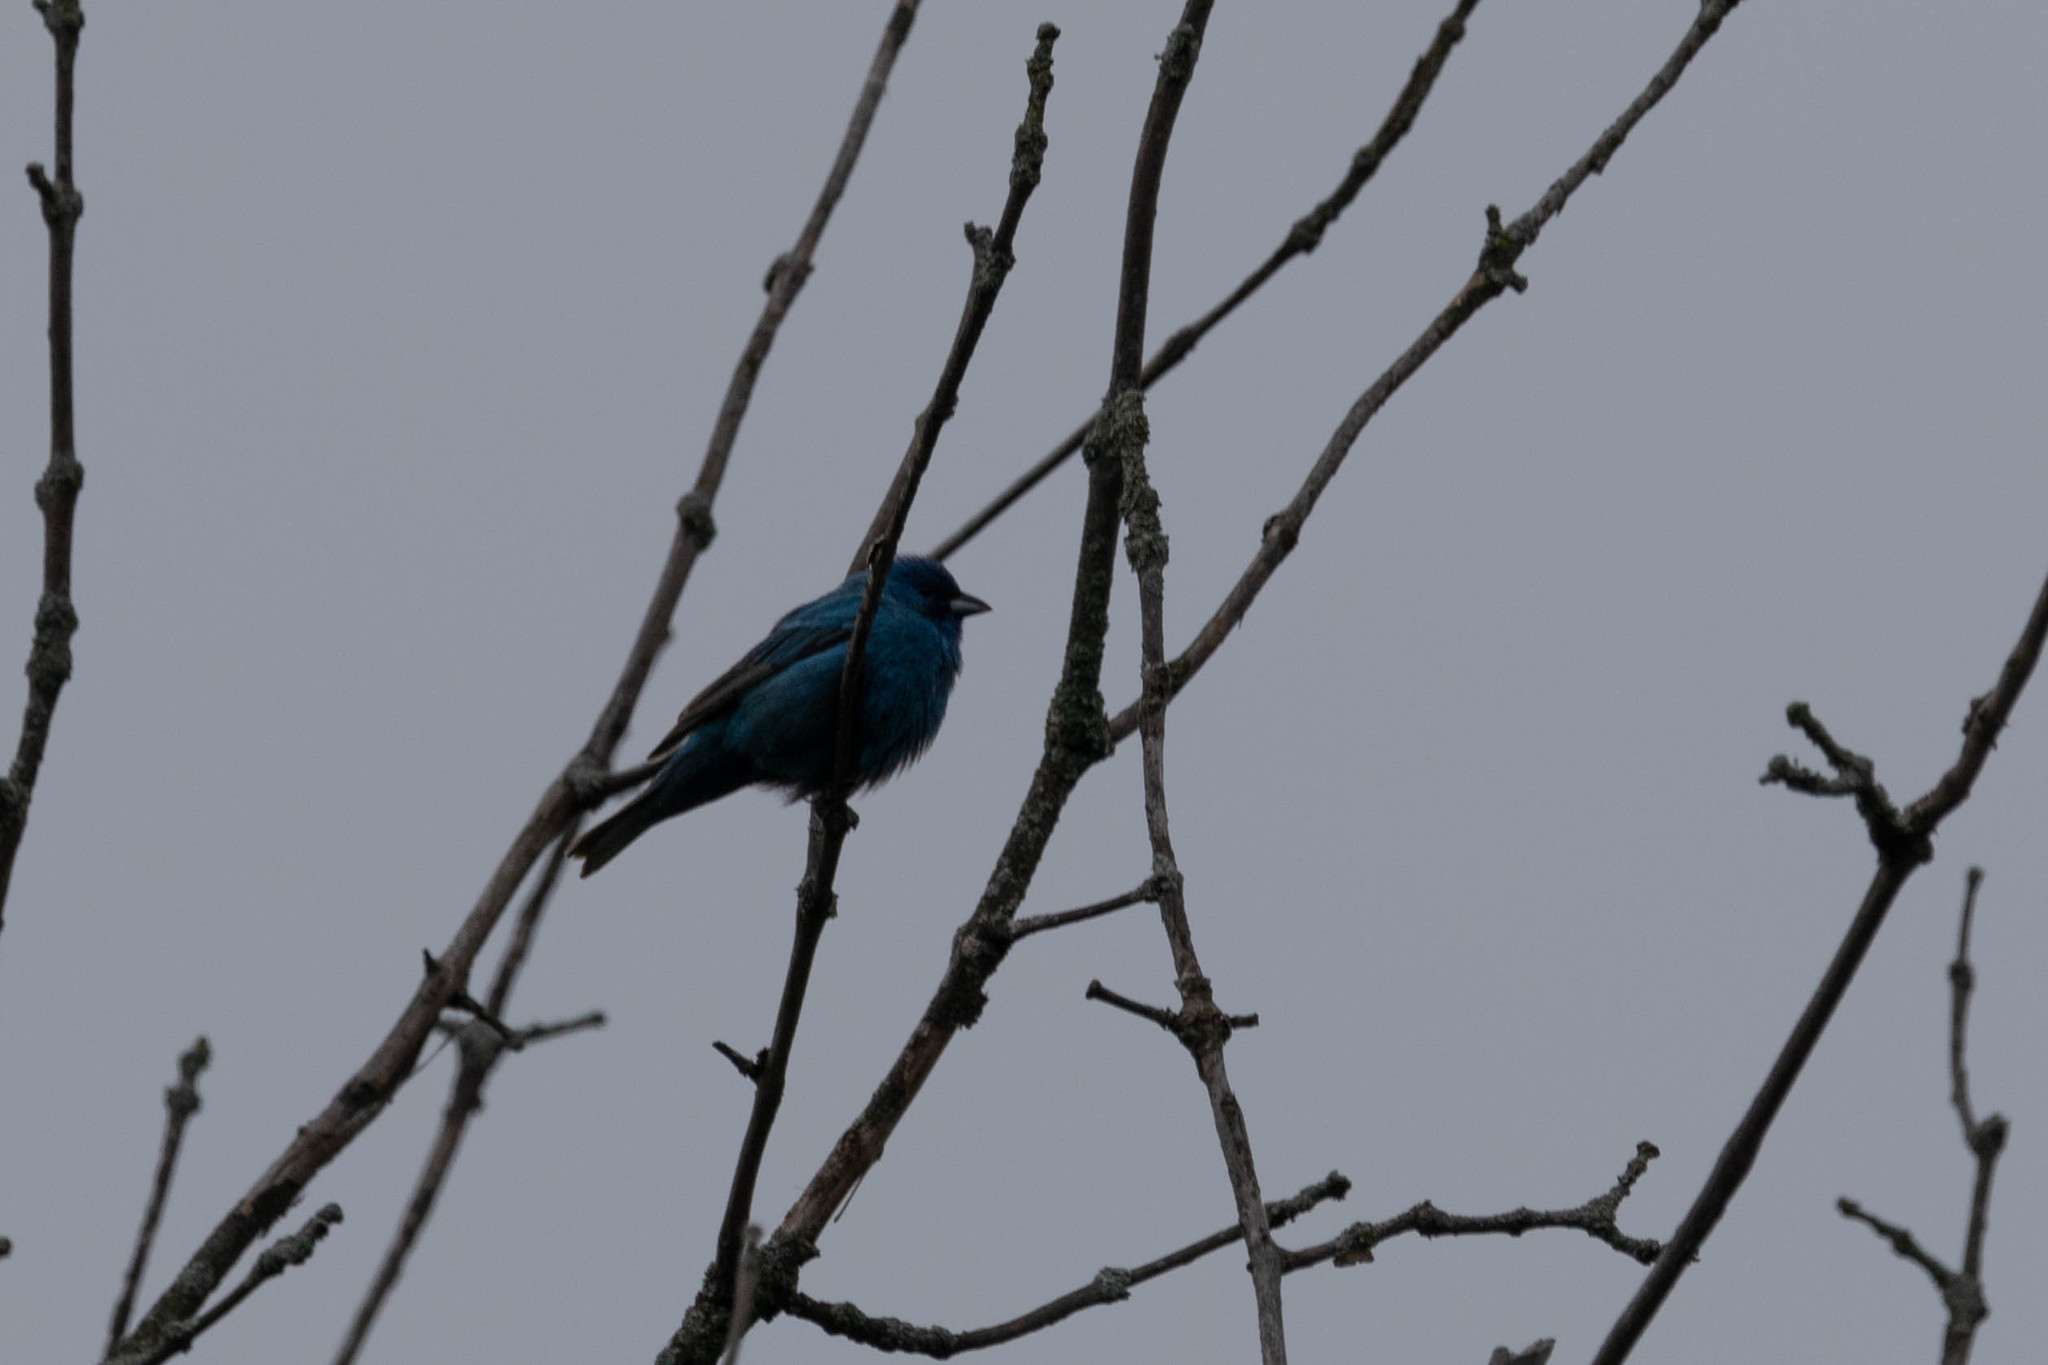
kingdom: Animalia
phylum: Chordata
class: Aves
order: Passeriformes
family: Cardinalidae
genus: Passerina
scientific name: Passerina cyanea
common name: Indigo bunting
